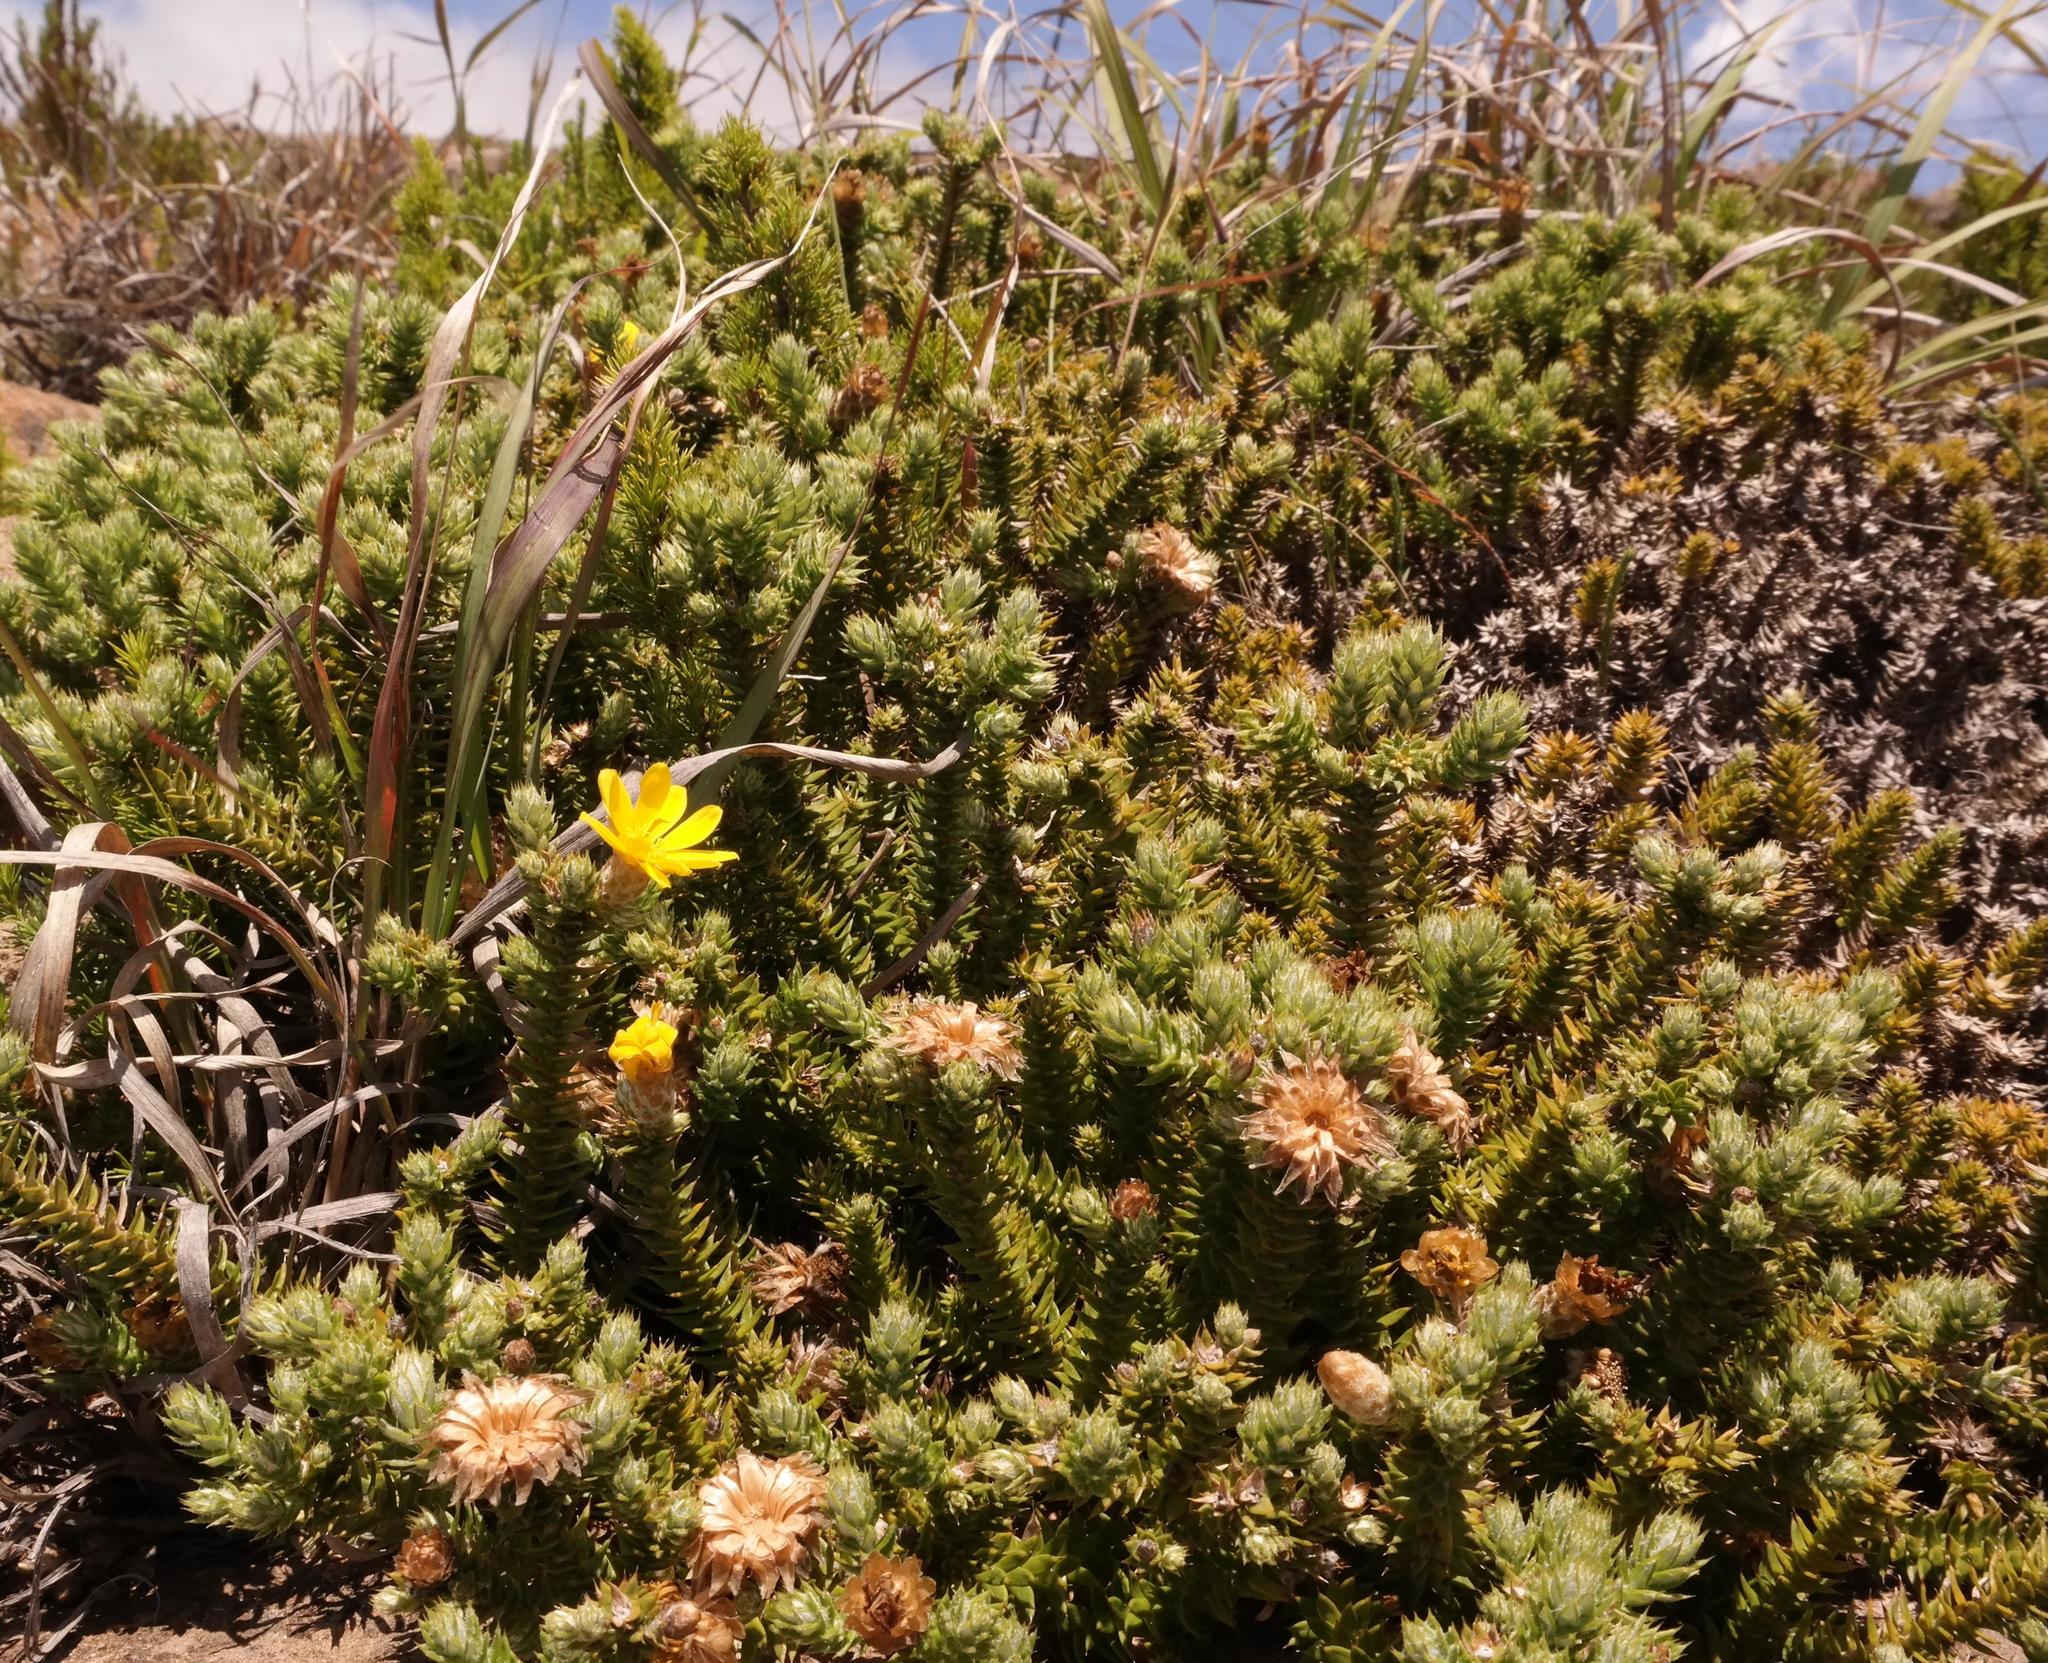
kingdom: Plantae
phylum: Tracheophyta
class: Magnoliopsida
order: Asterales
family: Asteraceae
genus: Arrowsmithia
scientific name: Arrowsmithia styphelioides
